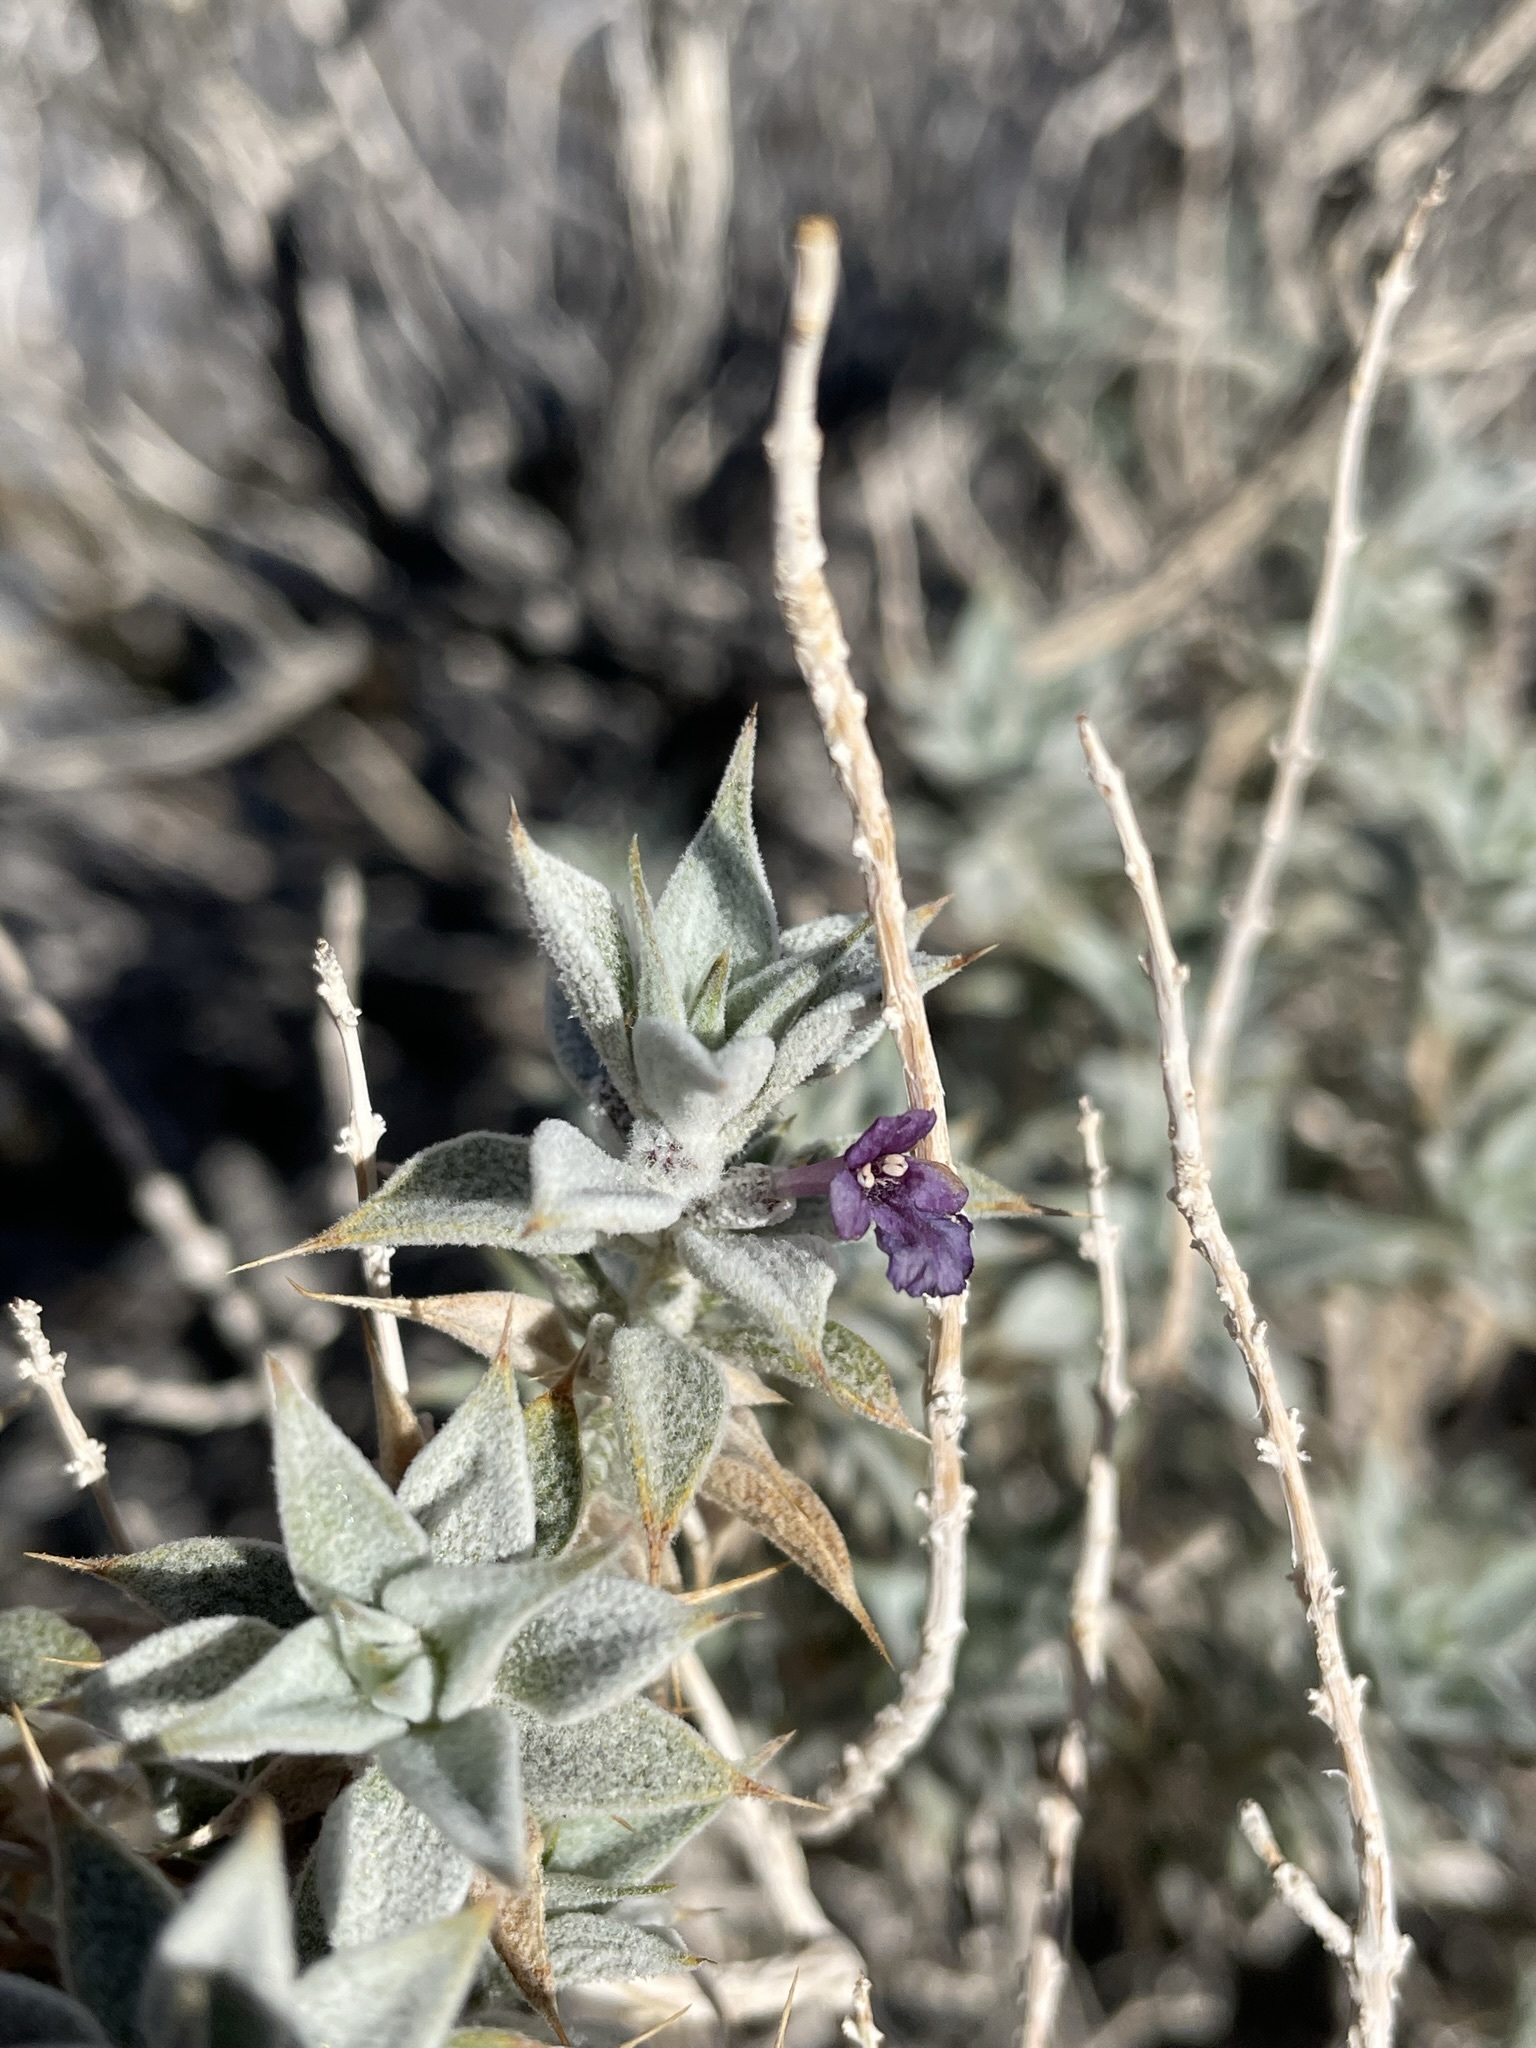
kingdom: Plantae
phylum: Tracheophyta
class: Magnoliopsida
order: Lamiales
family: Lamiaceae
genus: Salvia
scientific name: Salvia funerea
